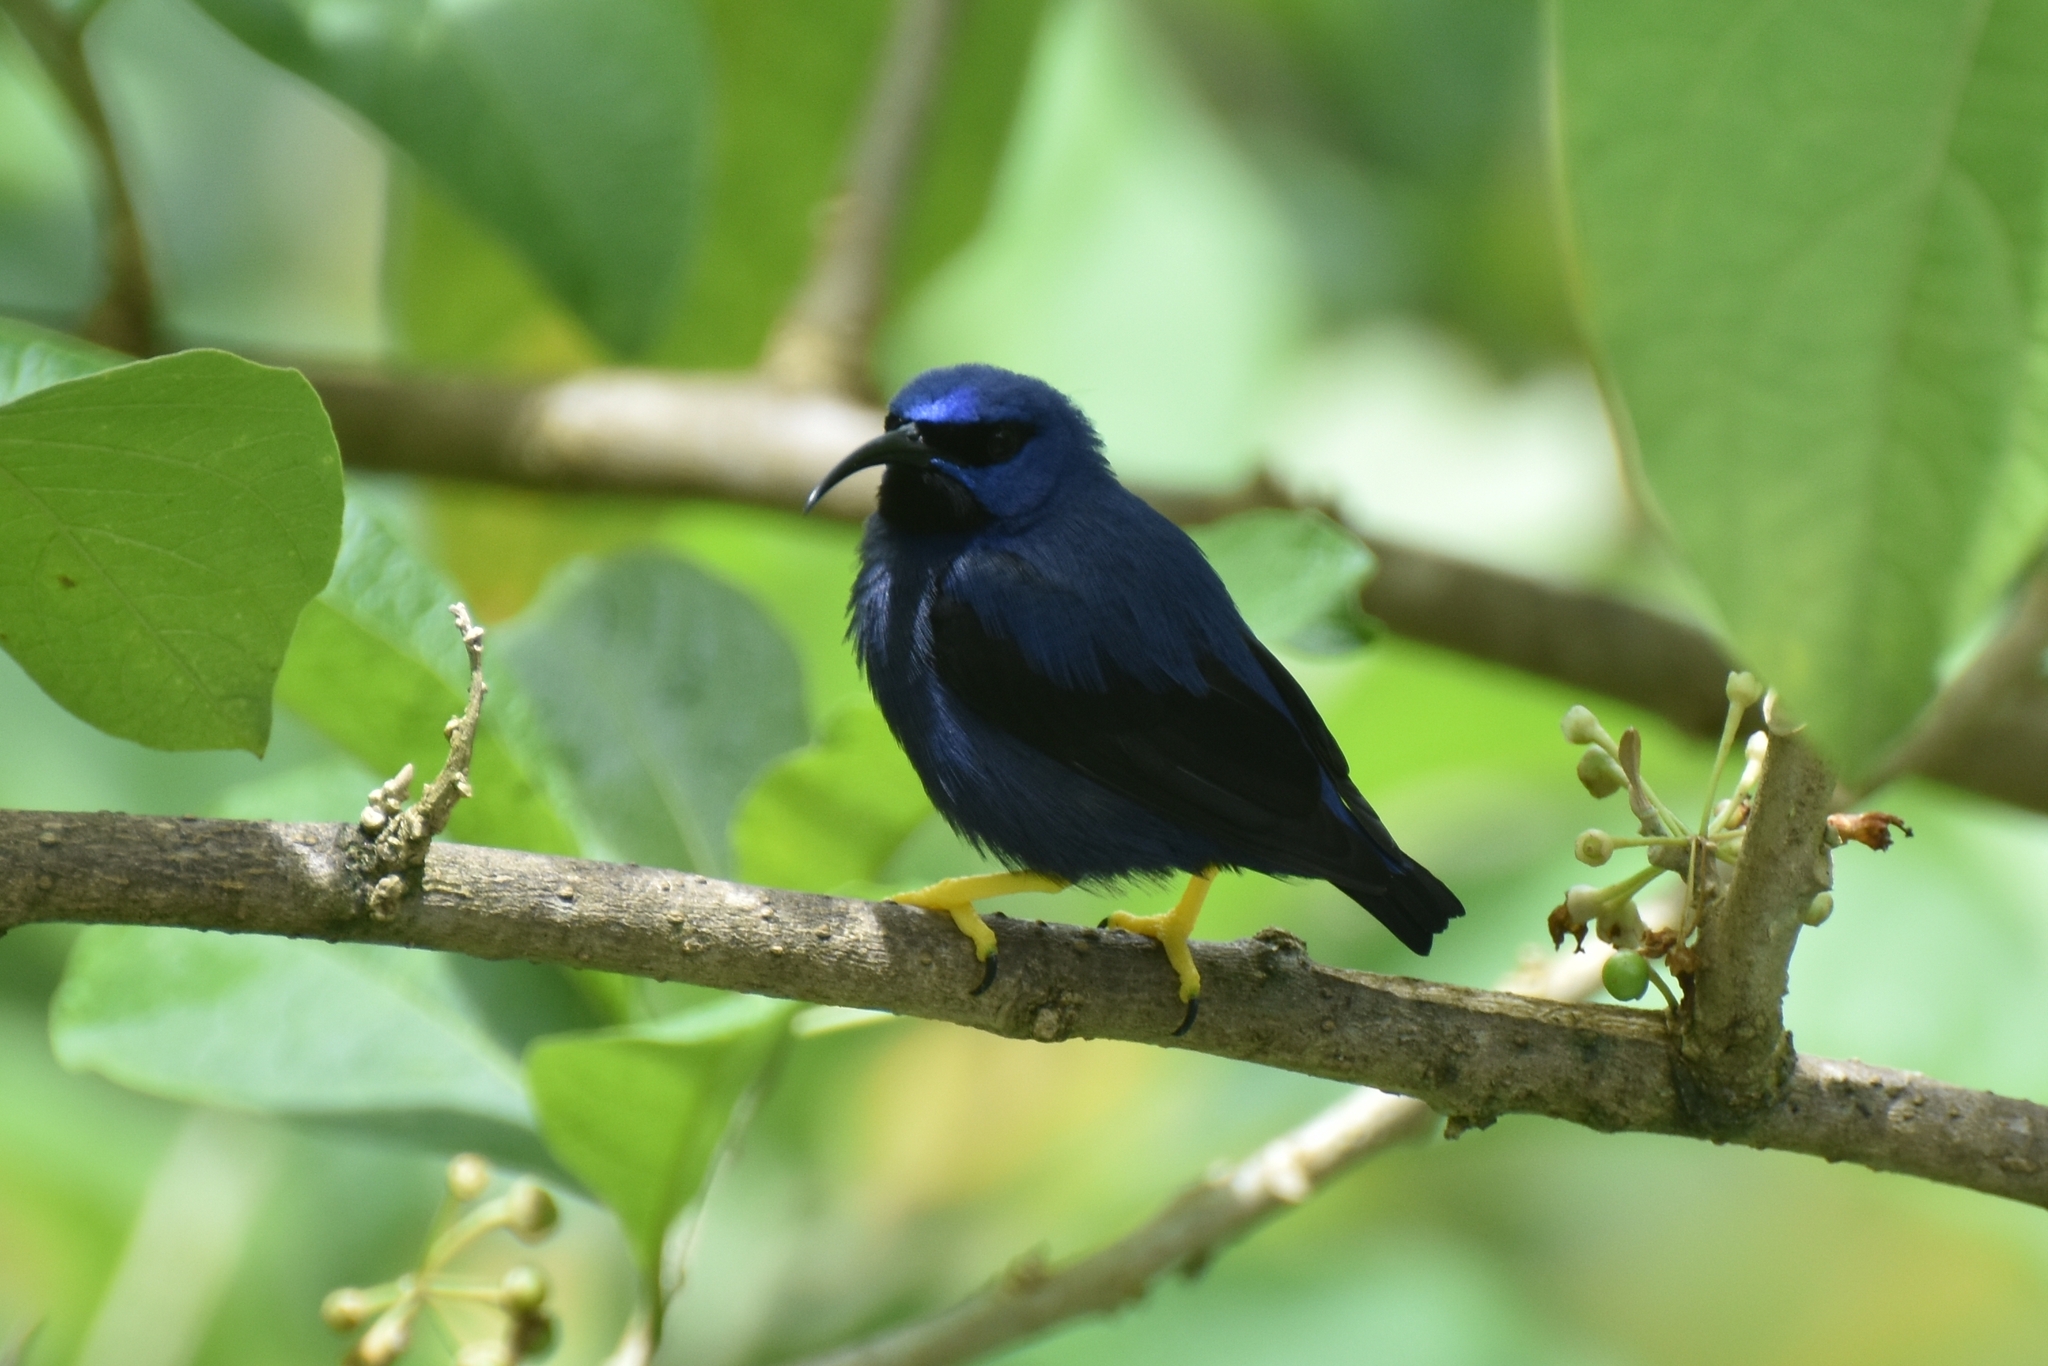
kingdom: Animalia
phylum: Chordata
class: Aves
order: Passeriformes
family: Thraupidae
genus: Cyanerpes
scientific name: Cyanerpes caeruleus
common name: Purple honeycreeper
